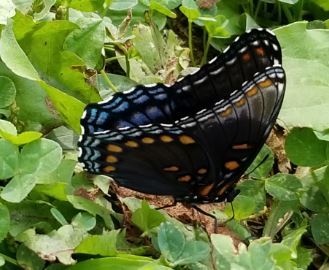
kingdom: Animalia
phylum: Arthropoda
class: Insecta
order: Lepidoptera
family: Nymphalidae
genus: Limenitis
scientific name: Limenitis astyanax
